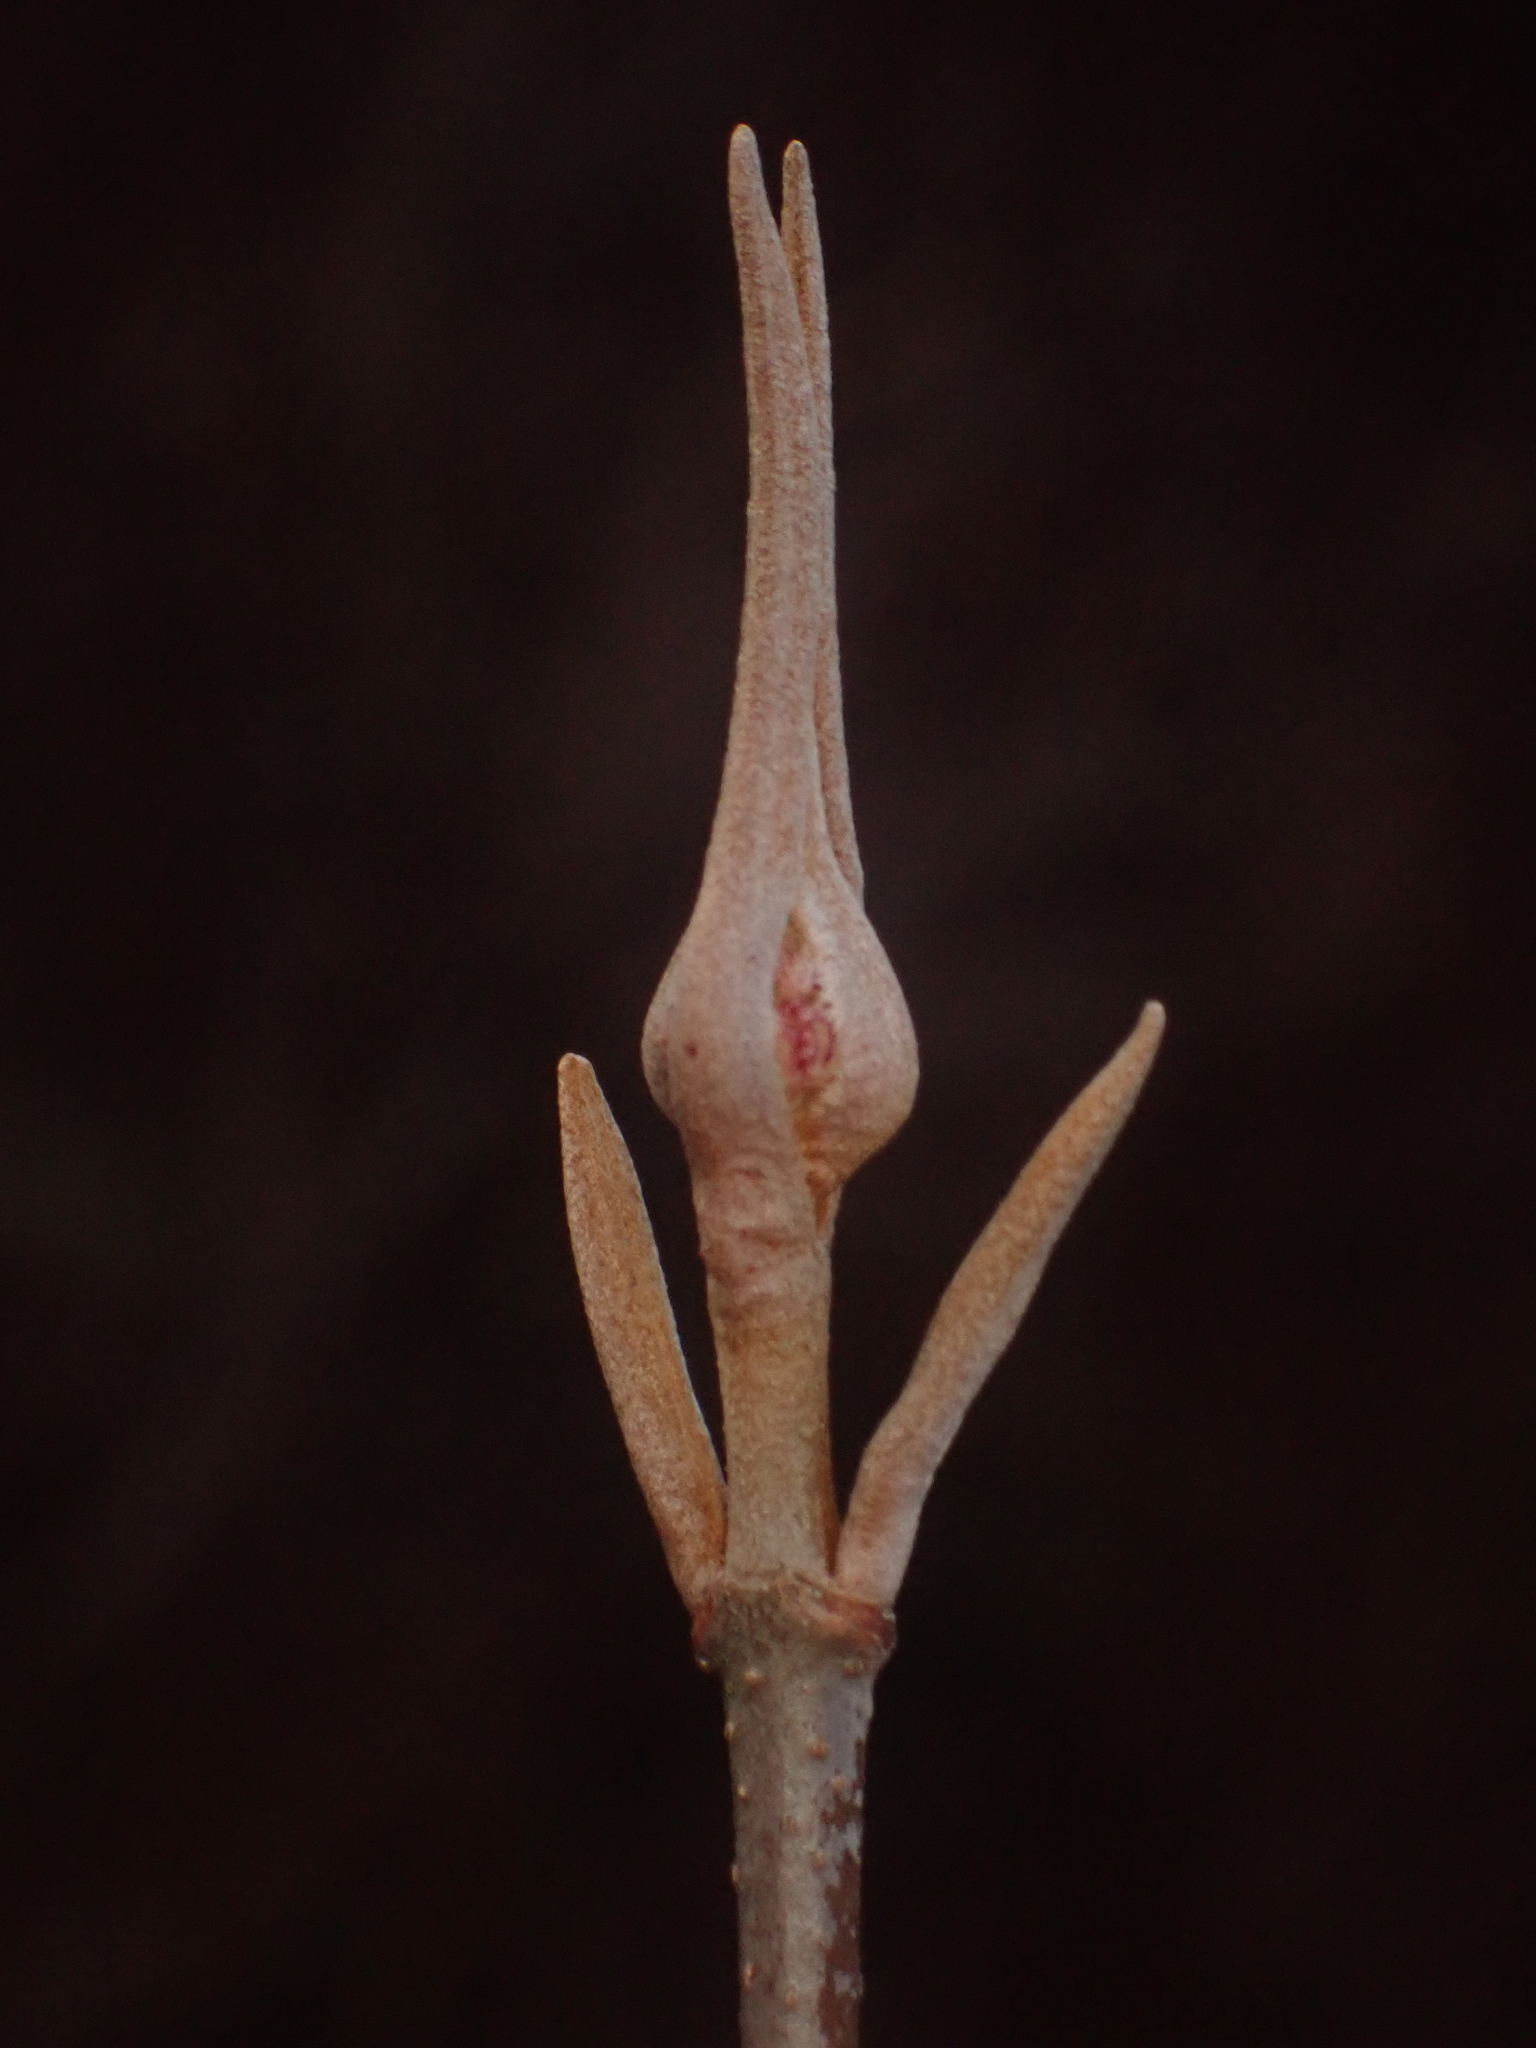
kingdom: Plantae
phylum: Tracheophyta
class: Magnoliopsida
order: Dipsacales
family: Viburnaceae
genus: Viburnum
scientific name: Viburnum cassinoides
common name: Swamp haw
